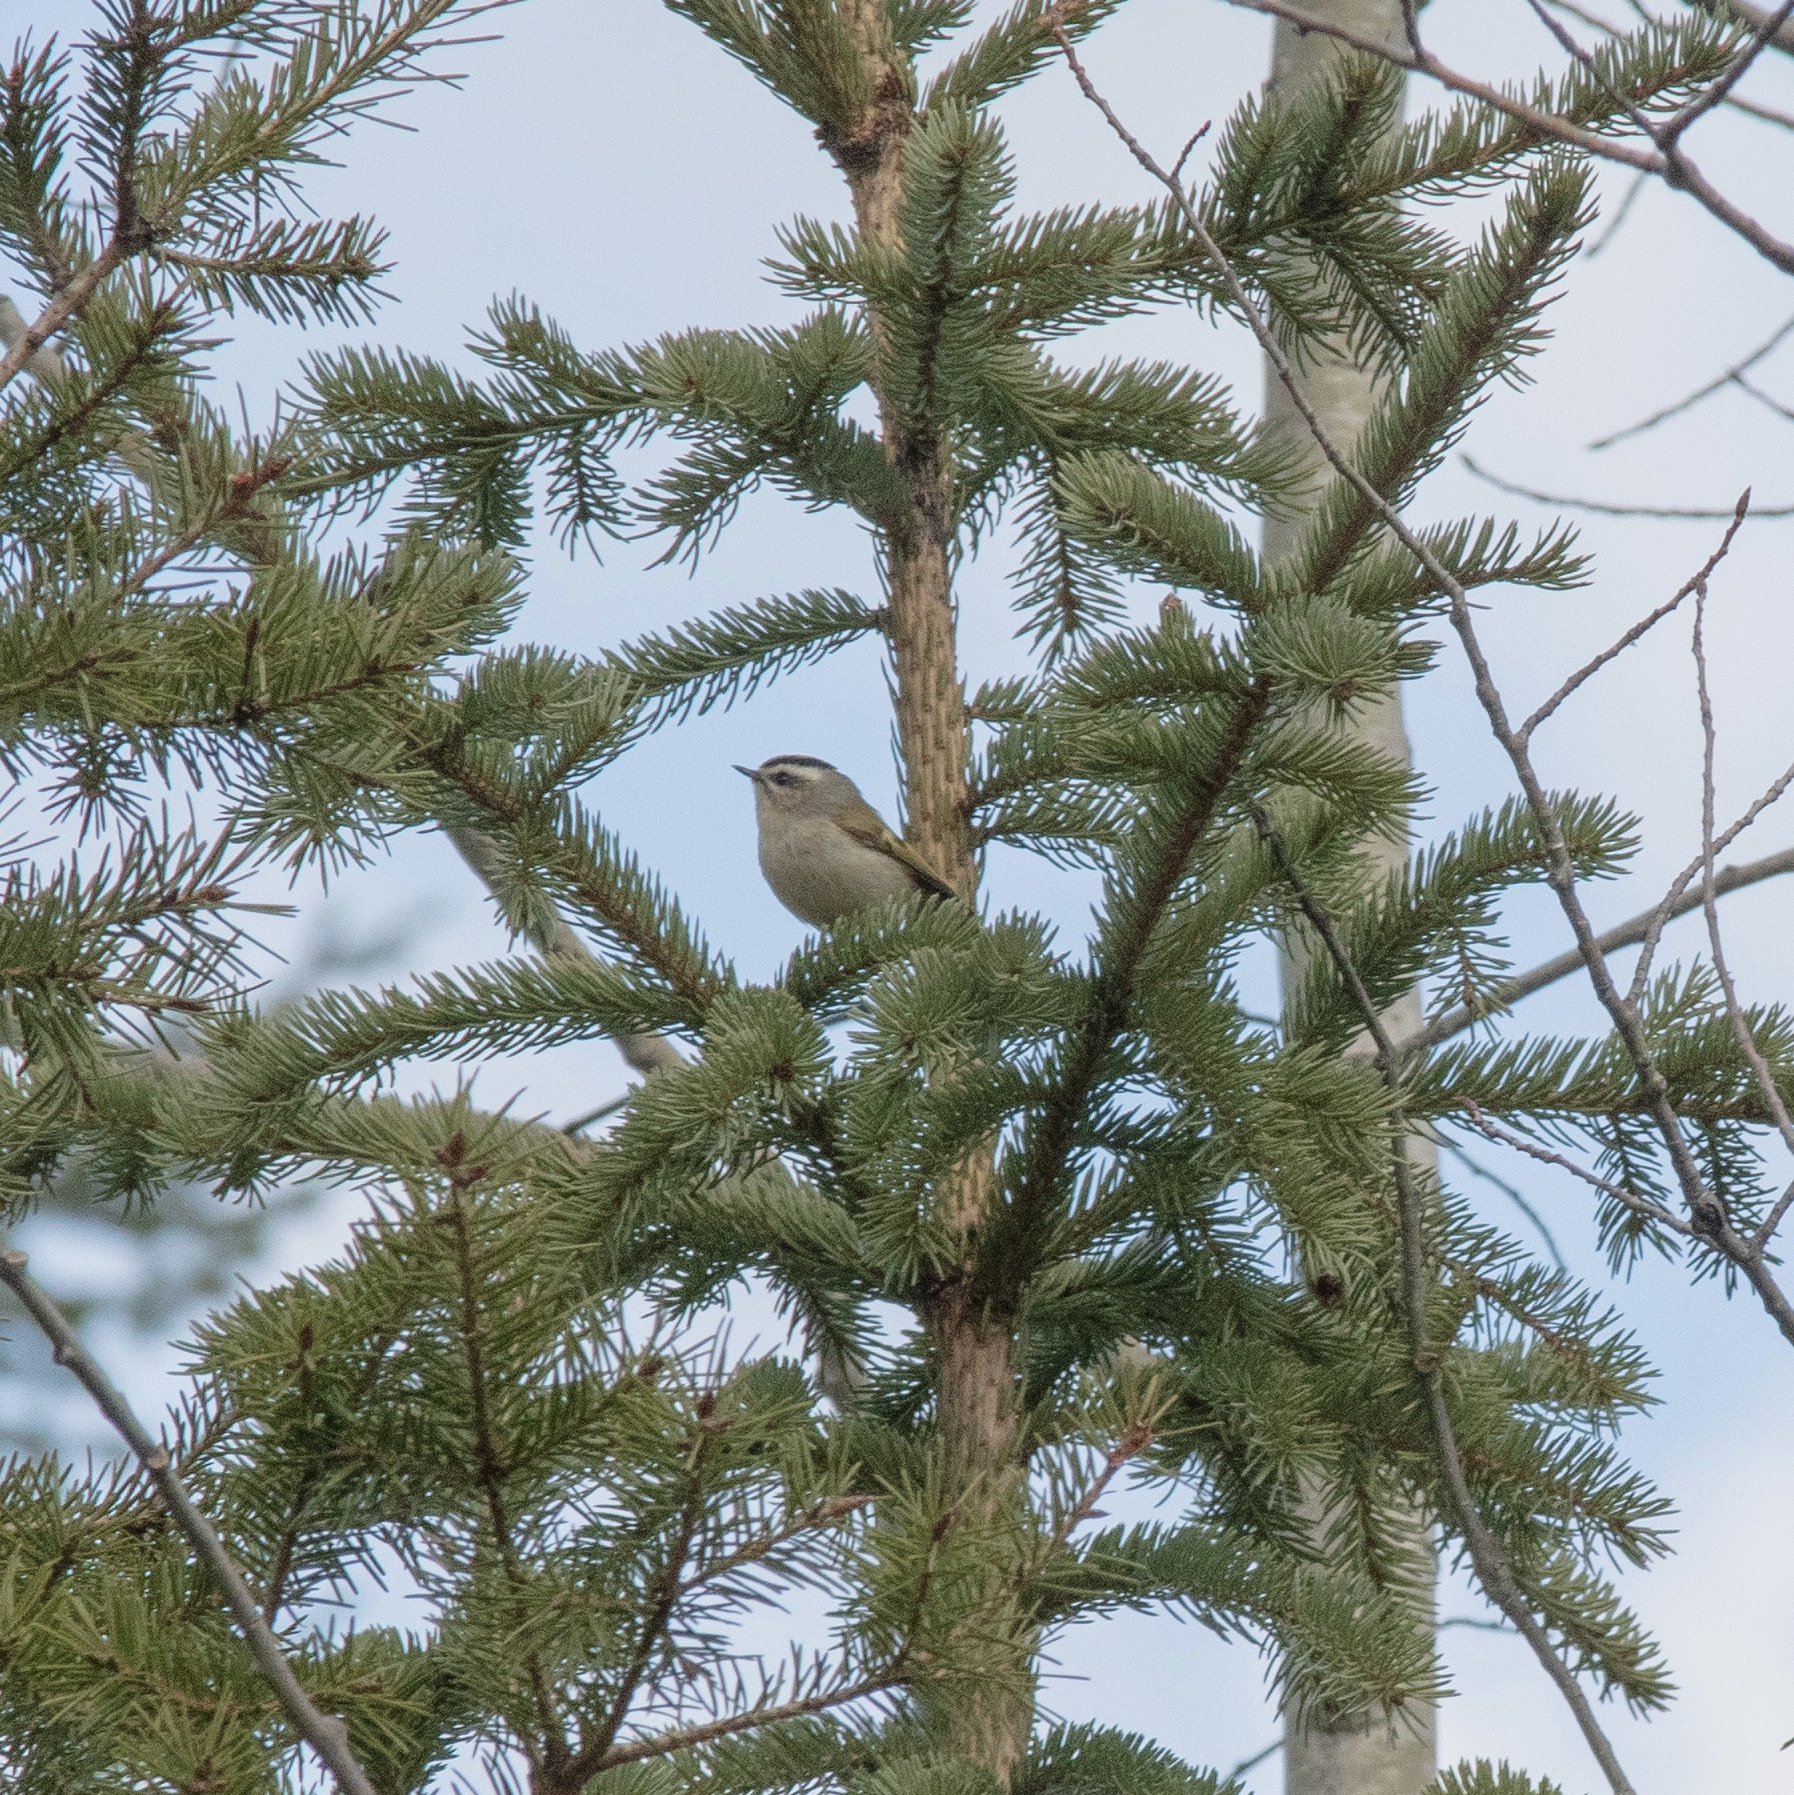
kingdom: Animalia
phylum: Chordata
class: Aves
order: Passeriformes
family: Regulidae
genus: Regulus
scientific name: Regulus satrapa
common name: Golden-crowned kinglet
